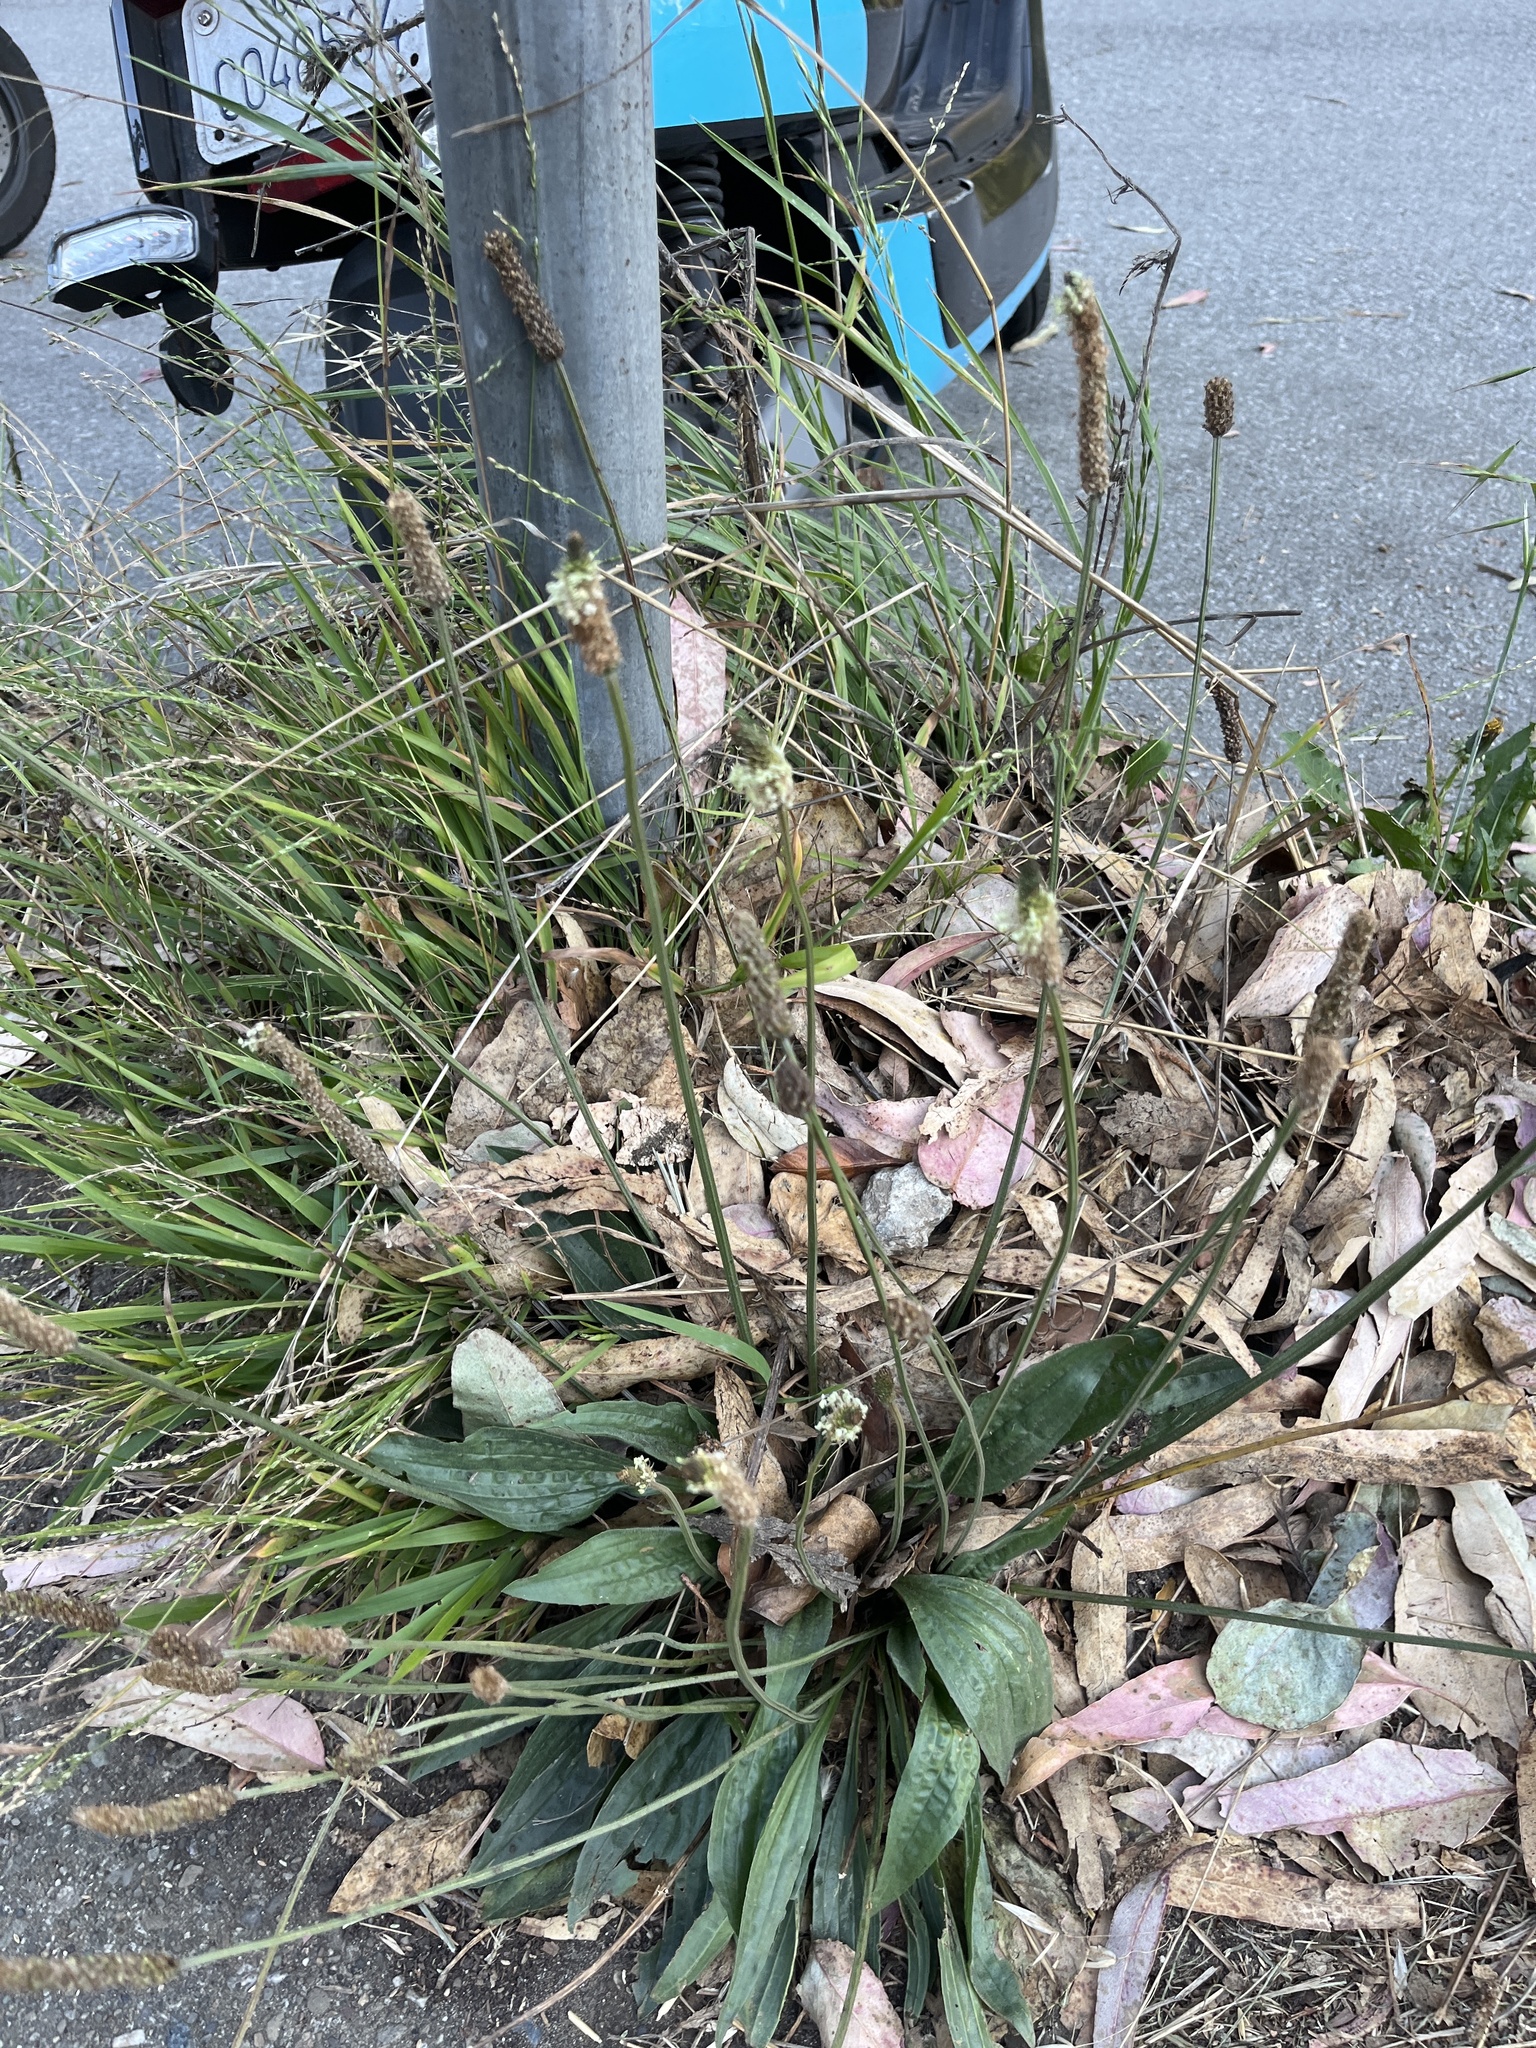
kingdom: Plantae
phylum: Tracheophyta
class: Magnoliopsida
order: Lamiales
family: Plantaginaceae
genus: Plantago
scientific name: Plantago lanceolata
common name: Ribwort plantain
